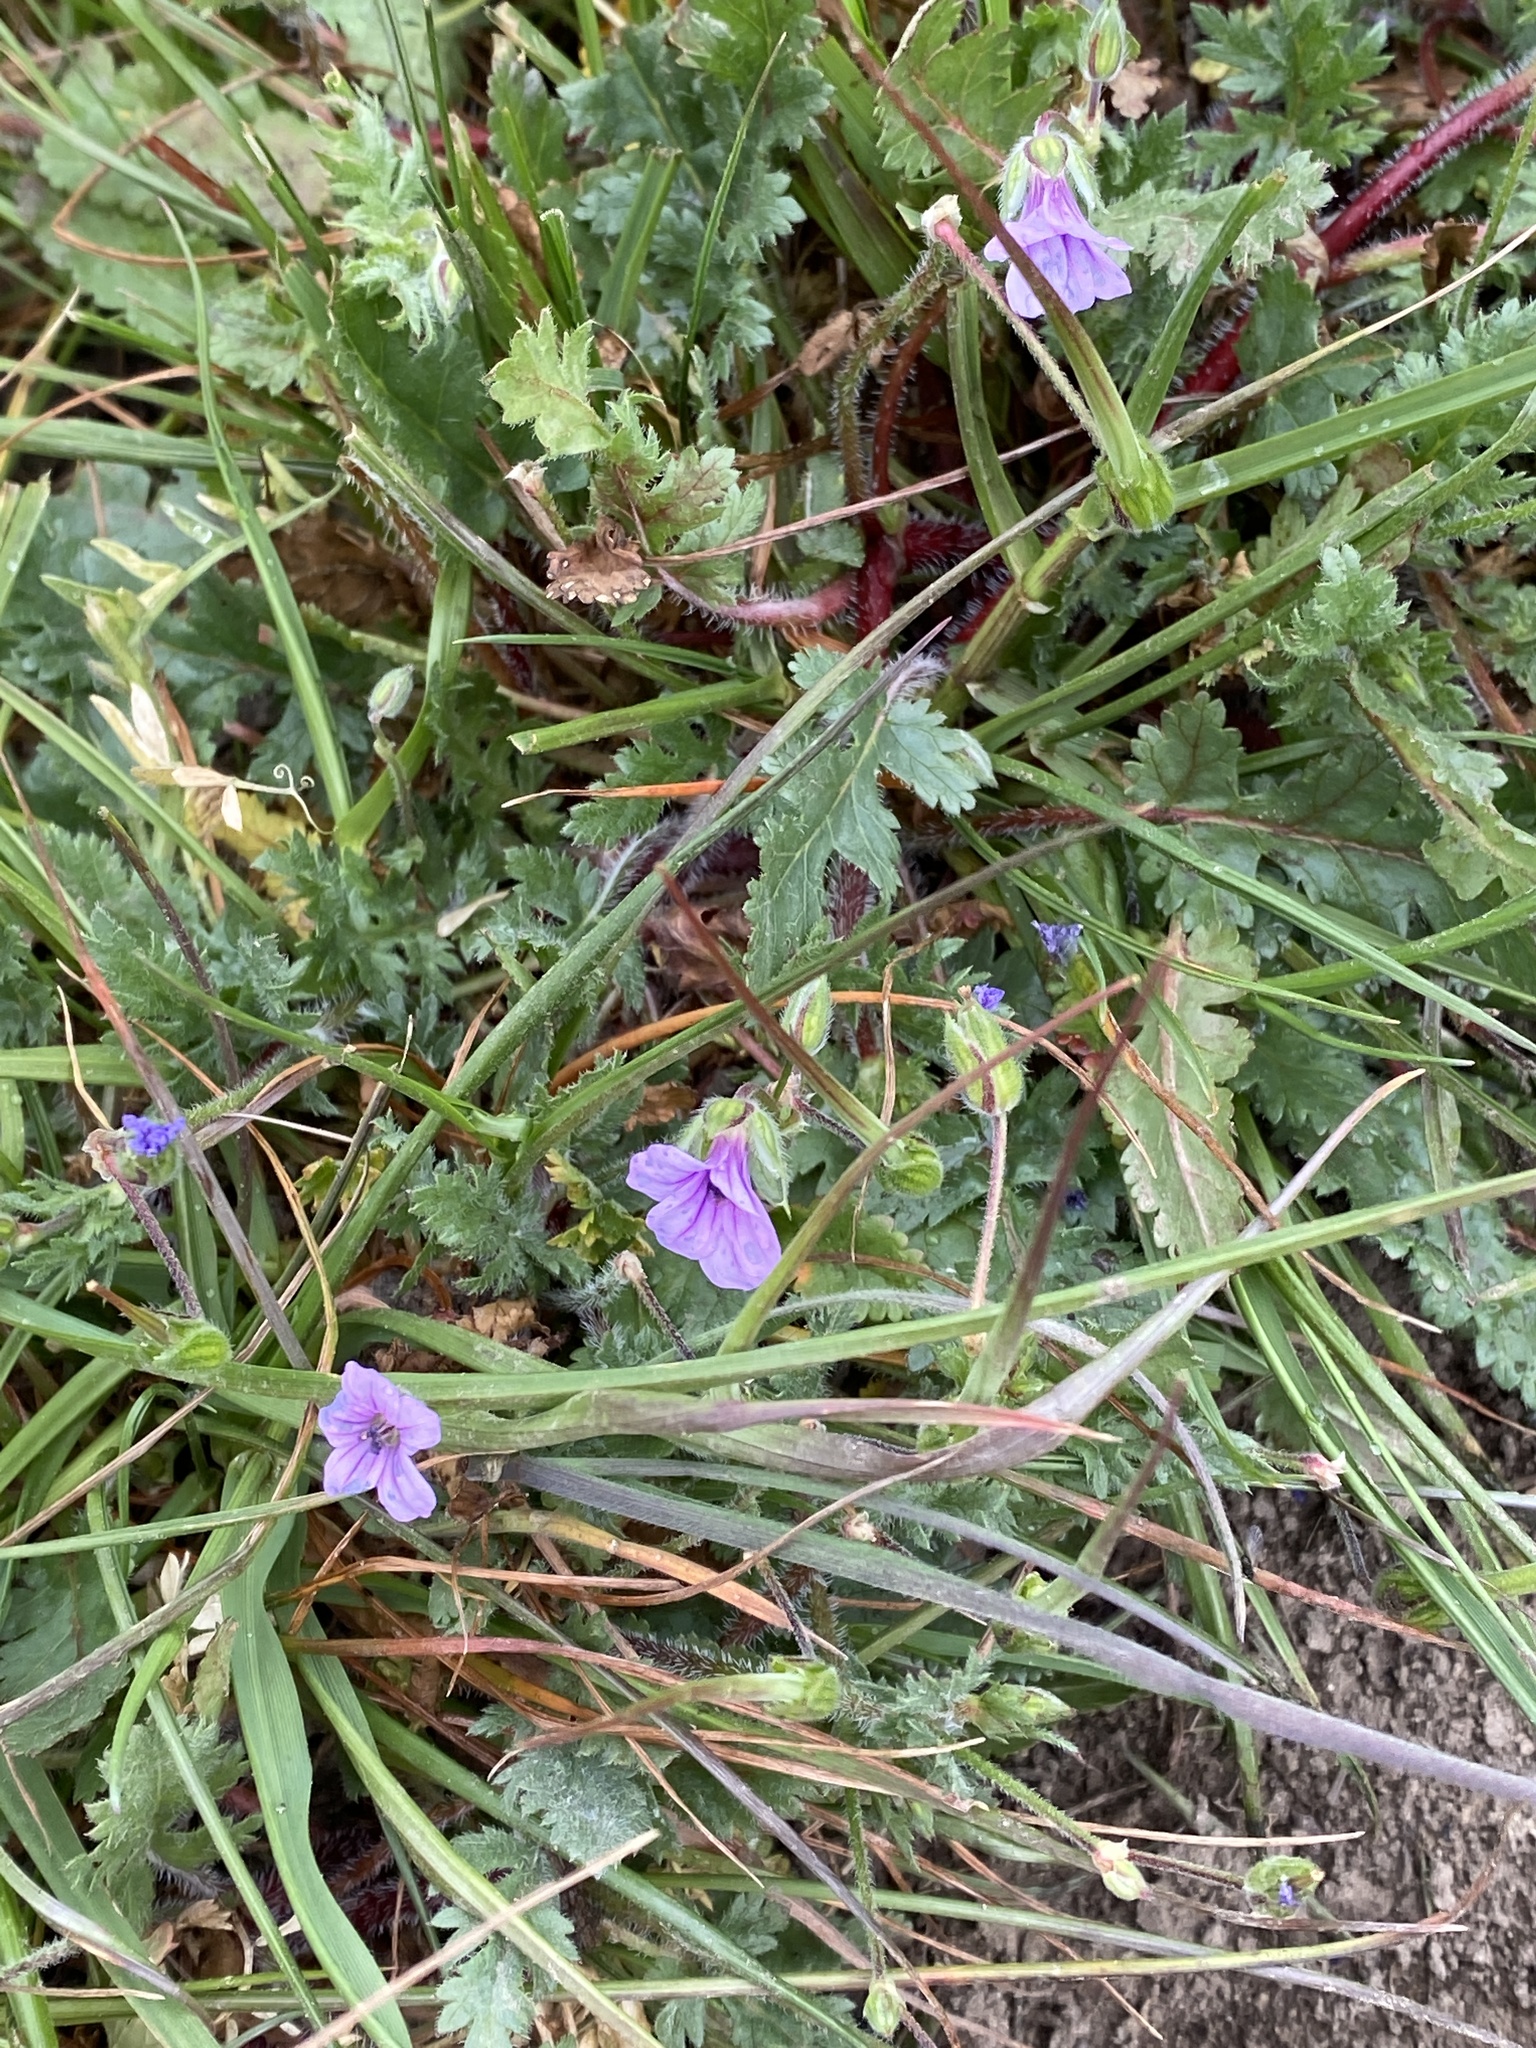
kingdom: Plantae
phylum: Tracheophyta
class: Magnoliopsida
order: Geraniales
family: Geraniaceae
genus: Erodium
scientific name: Erodium botrys
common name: Mediterranean stork's-bill
